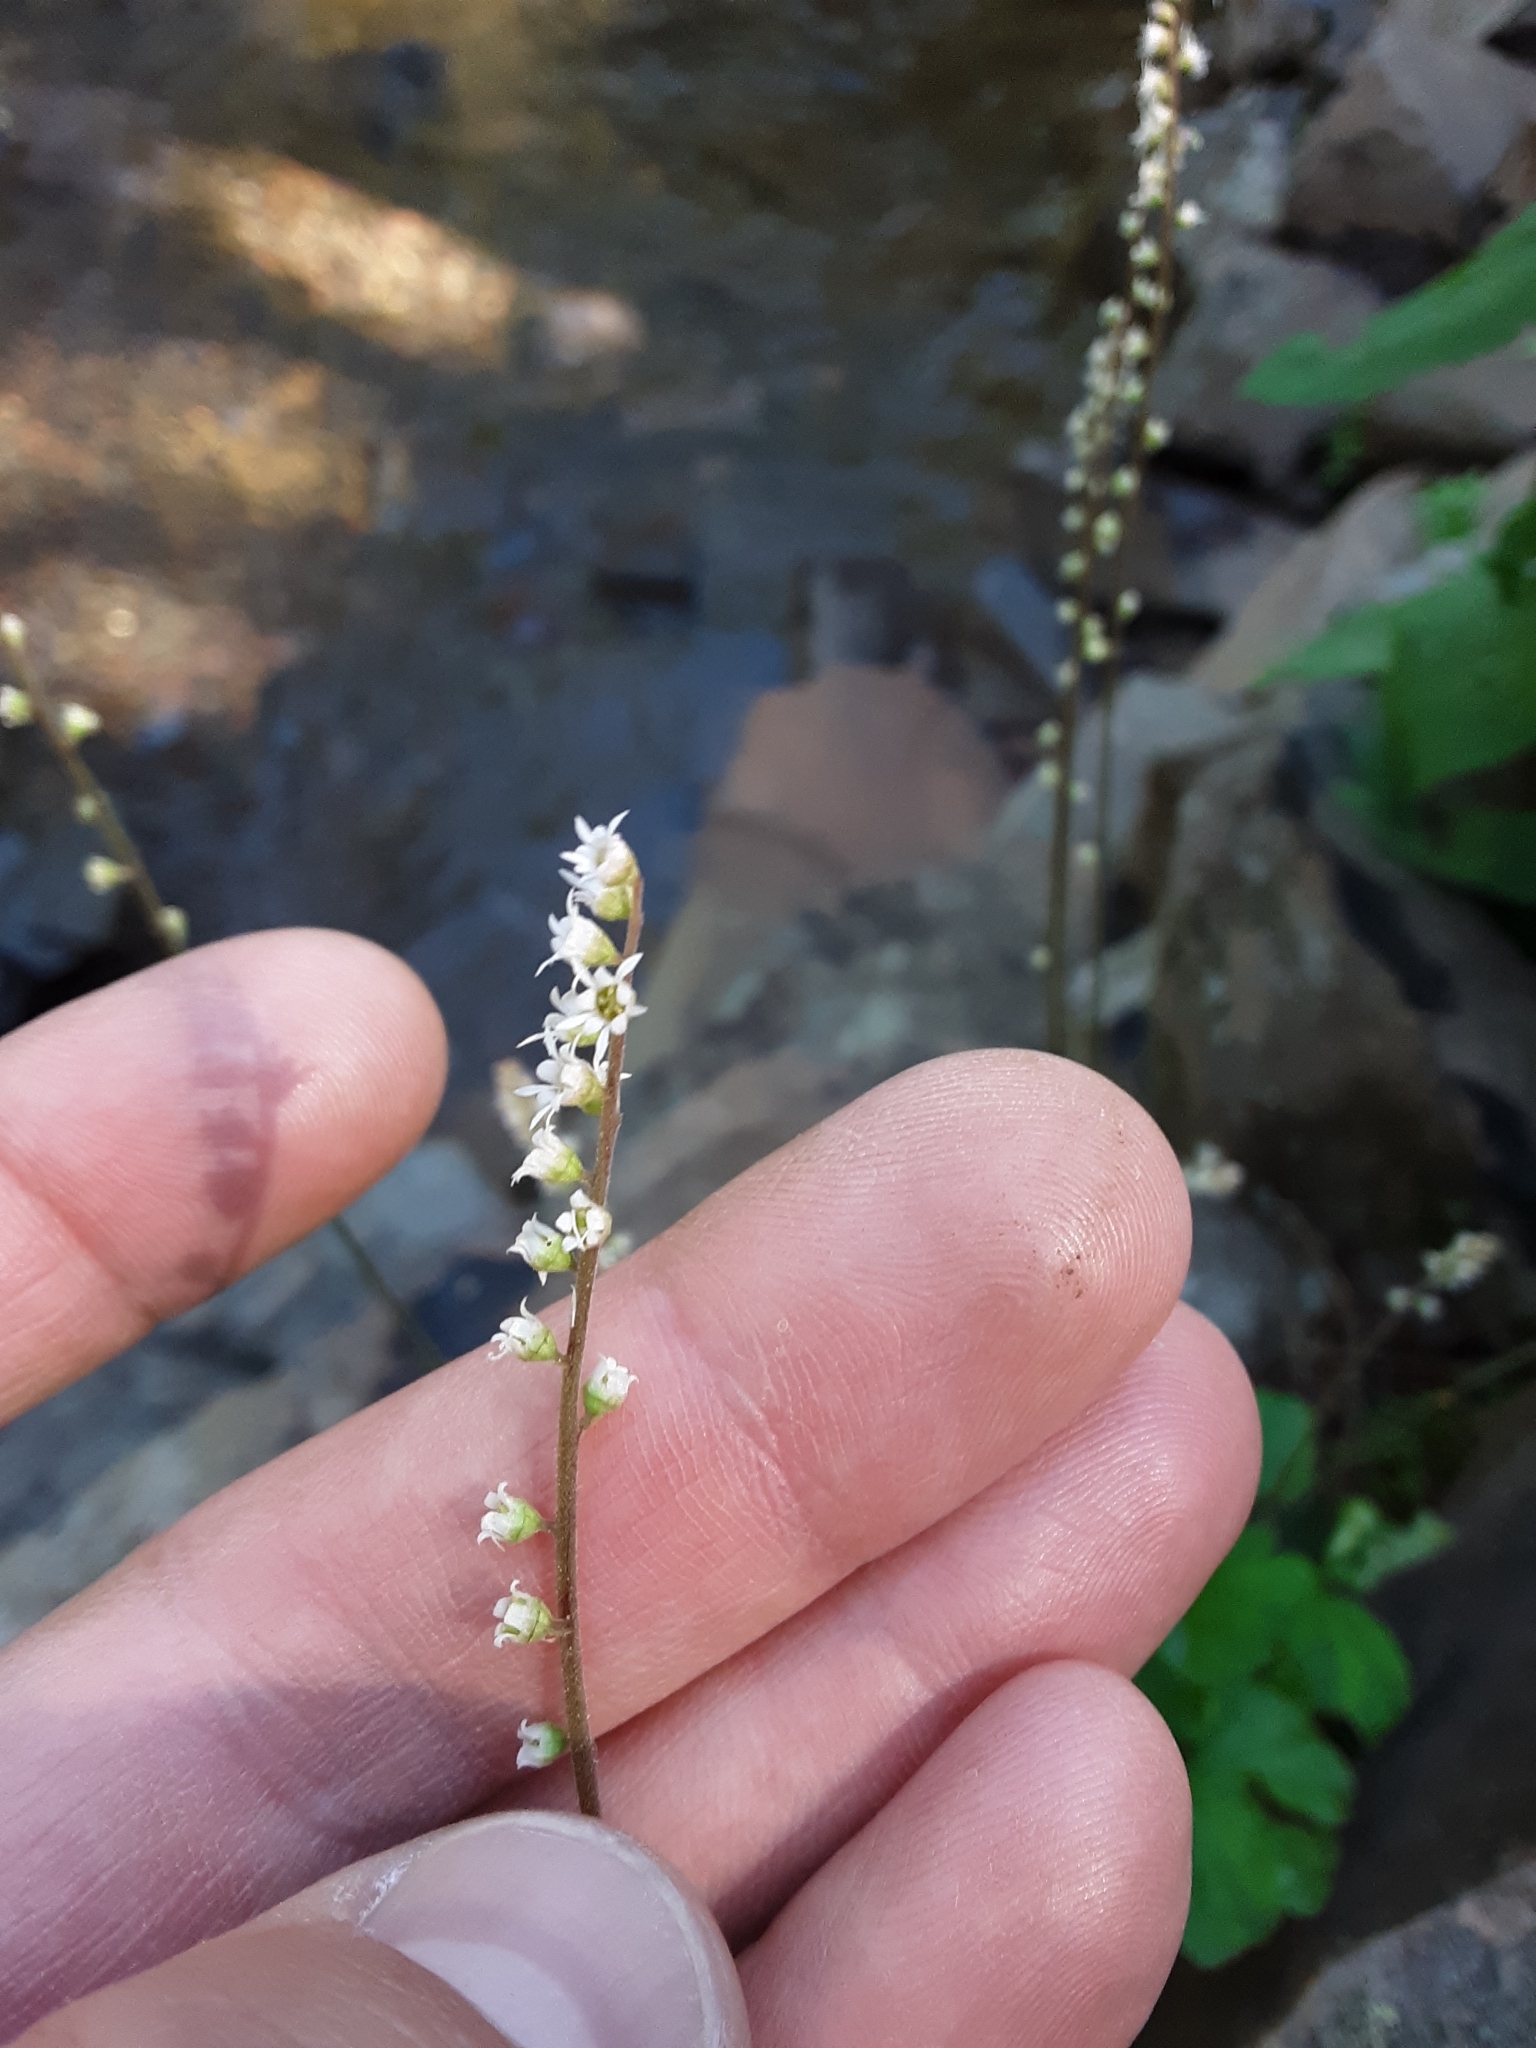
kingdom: Plantae
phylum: Tracheophyta
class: Magnoliopsida
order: Saxifragales
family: Saxifragaceae
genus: Ozomelis
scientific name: Ozomelis stauropetala
